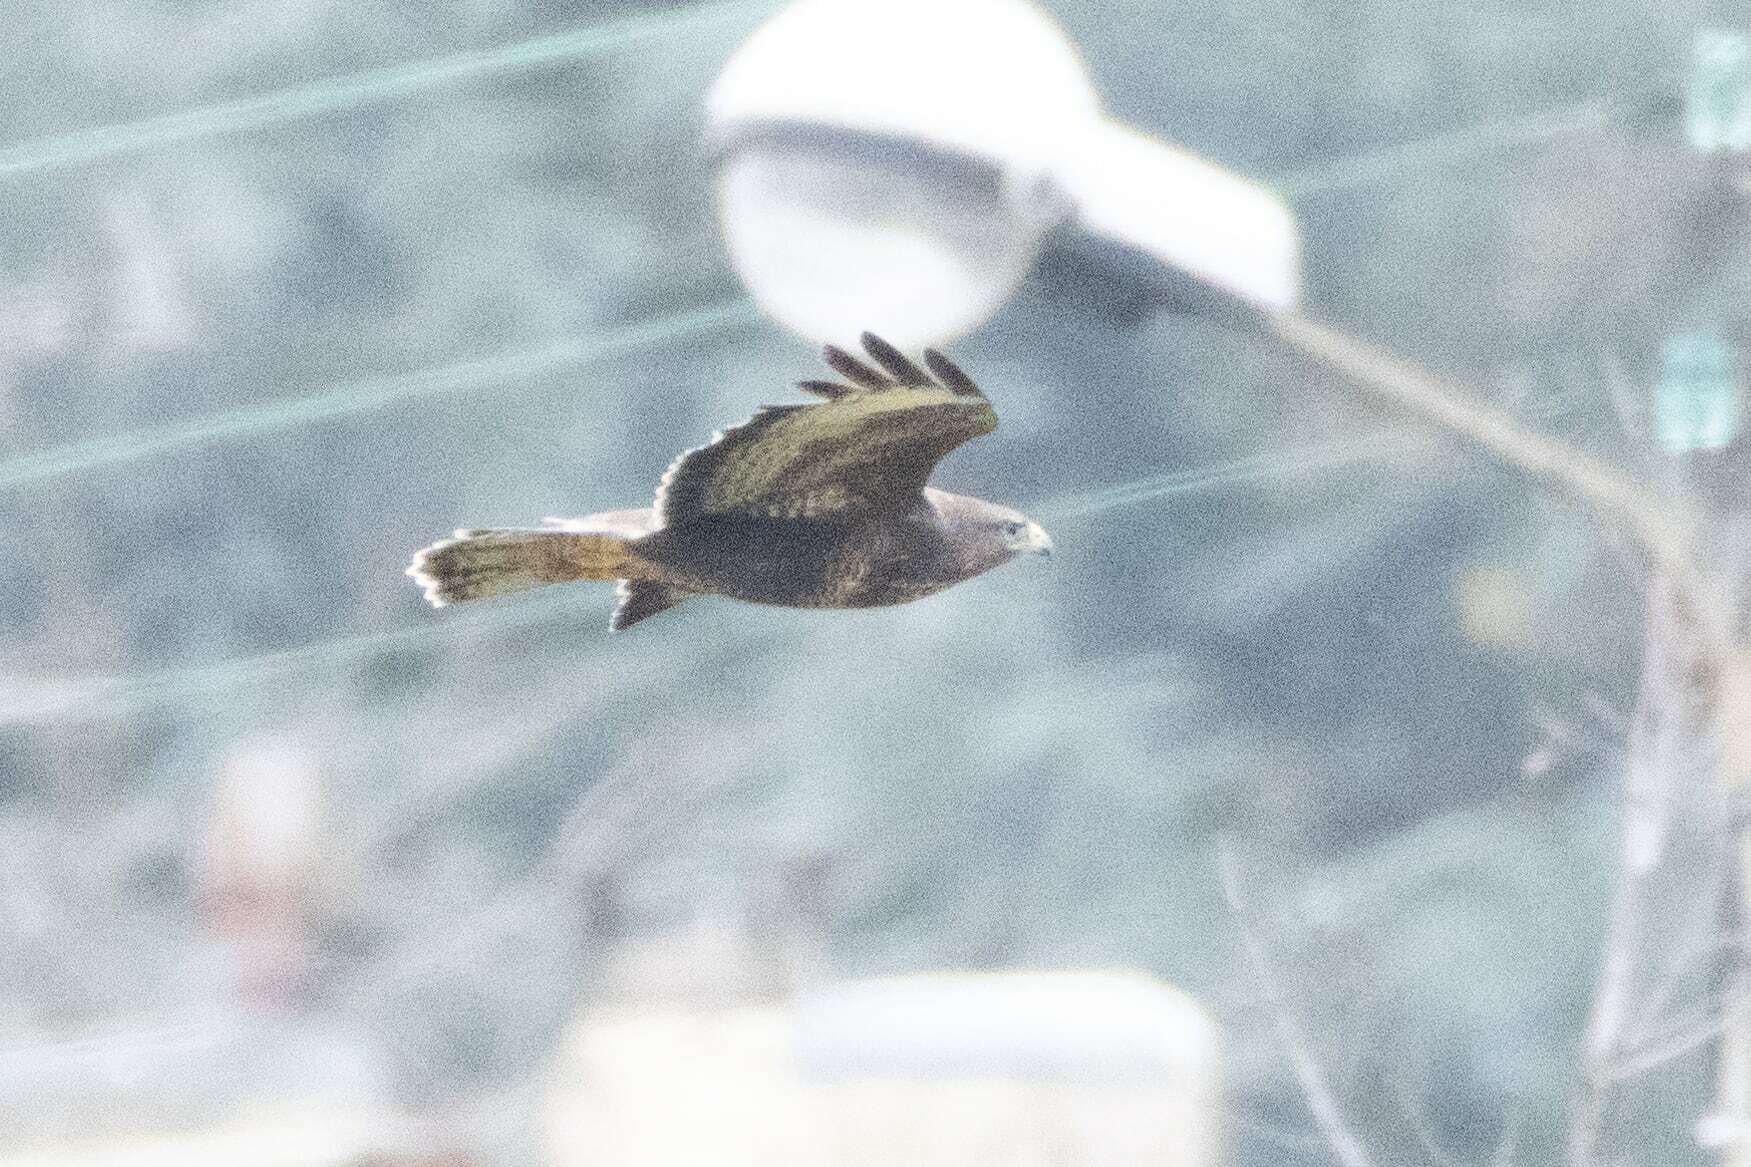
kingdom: Animalia
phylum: Chordata
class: Aves
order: Accipitriformes
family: Accipitridae
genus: Buteo
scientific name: Buteo buteo
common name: Common buzzard
